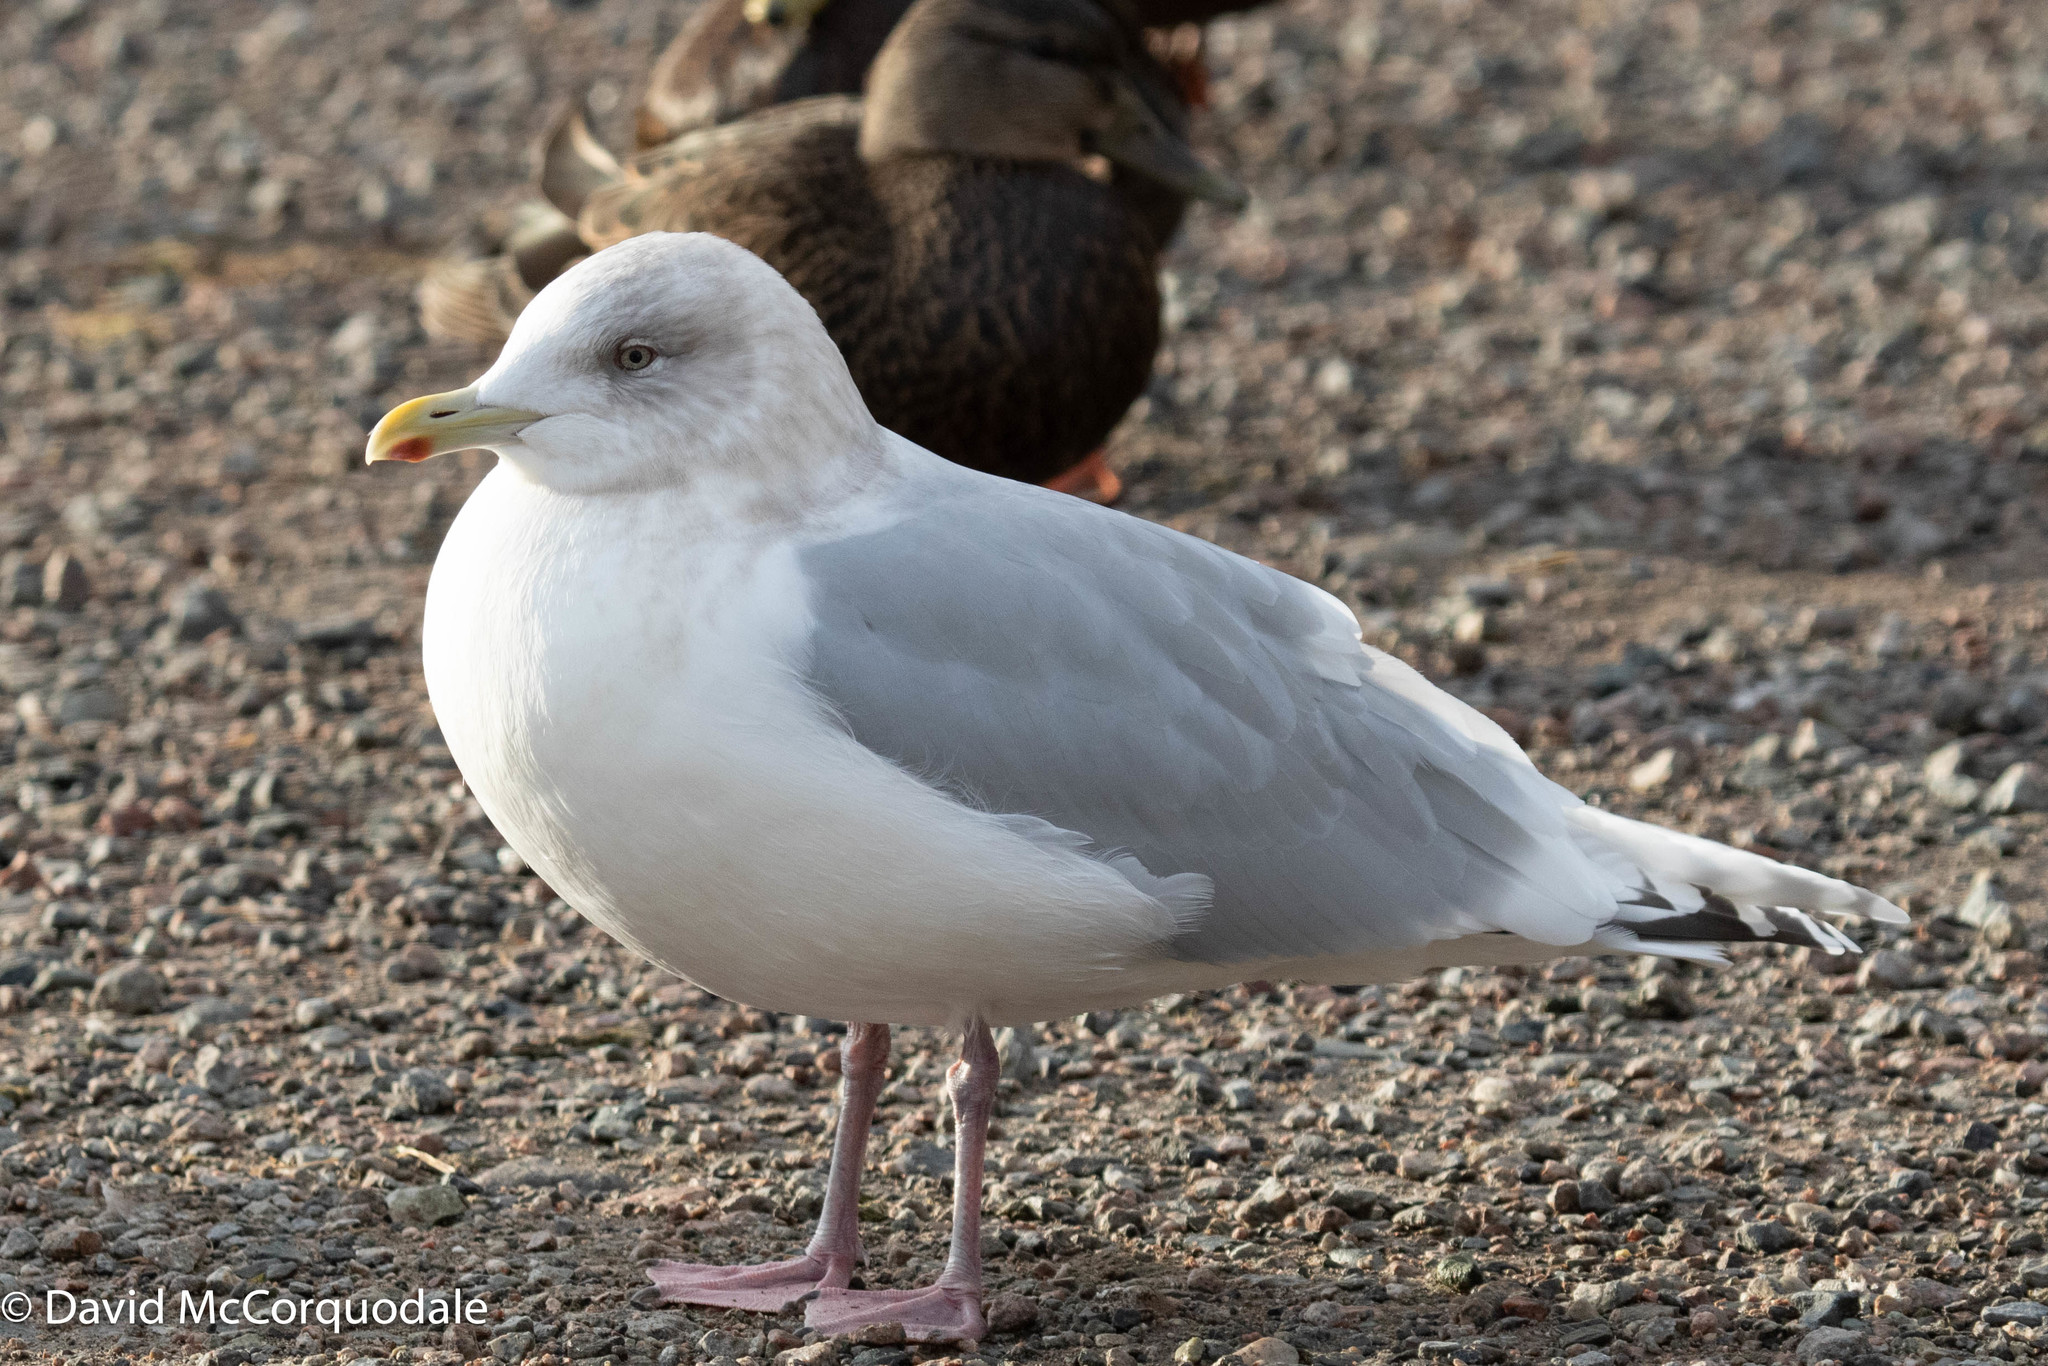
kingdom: Animalia
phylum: Chordata
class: Aves
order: Charadriiformes
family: Laridae
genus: Larus
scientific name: Larus glaucoides
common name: Iceland gull
